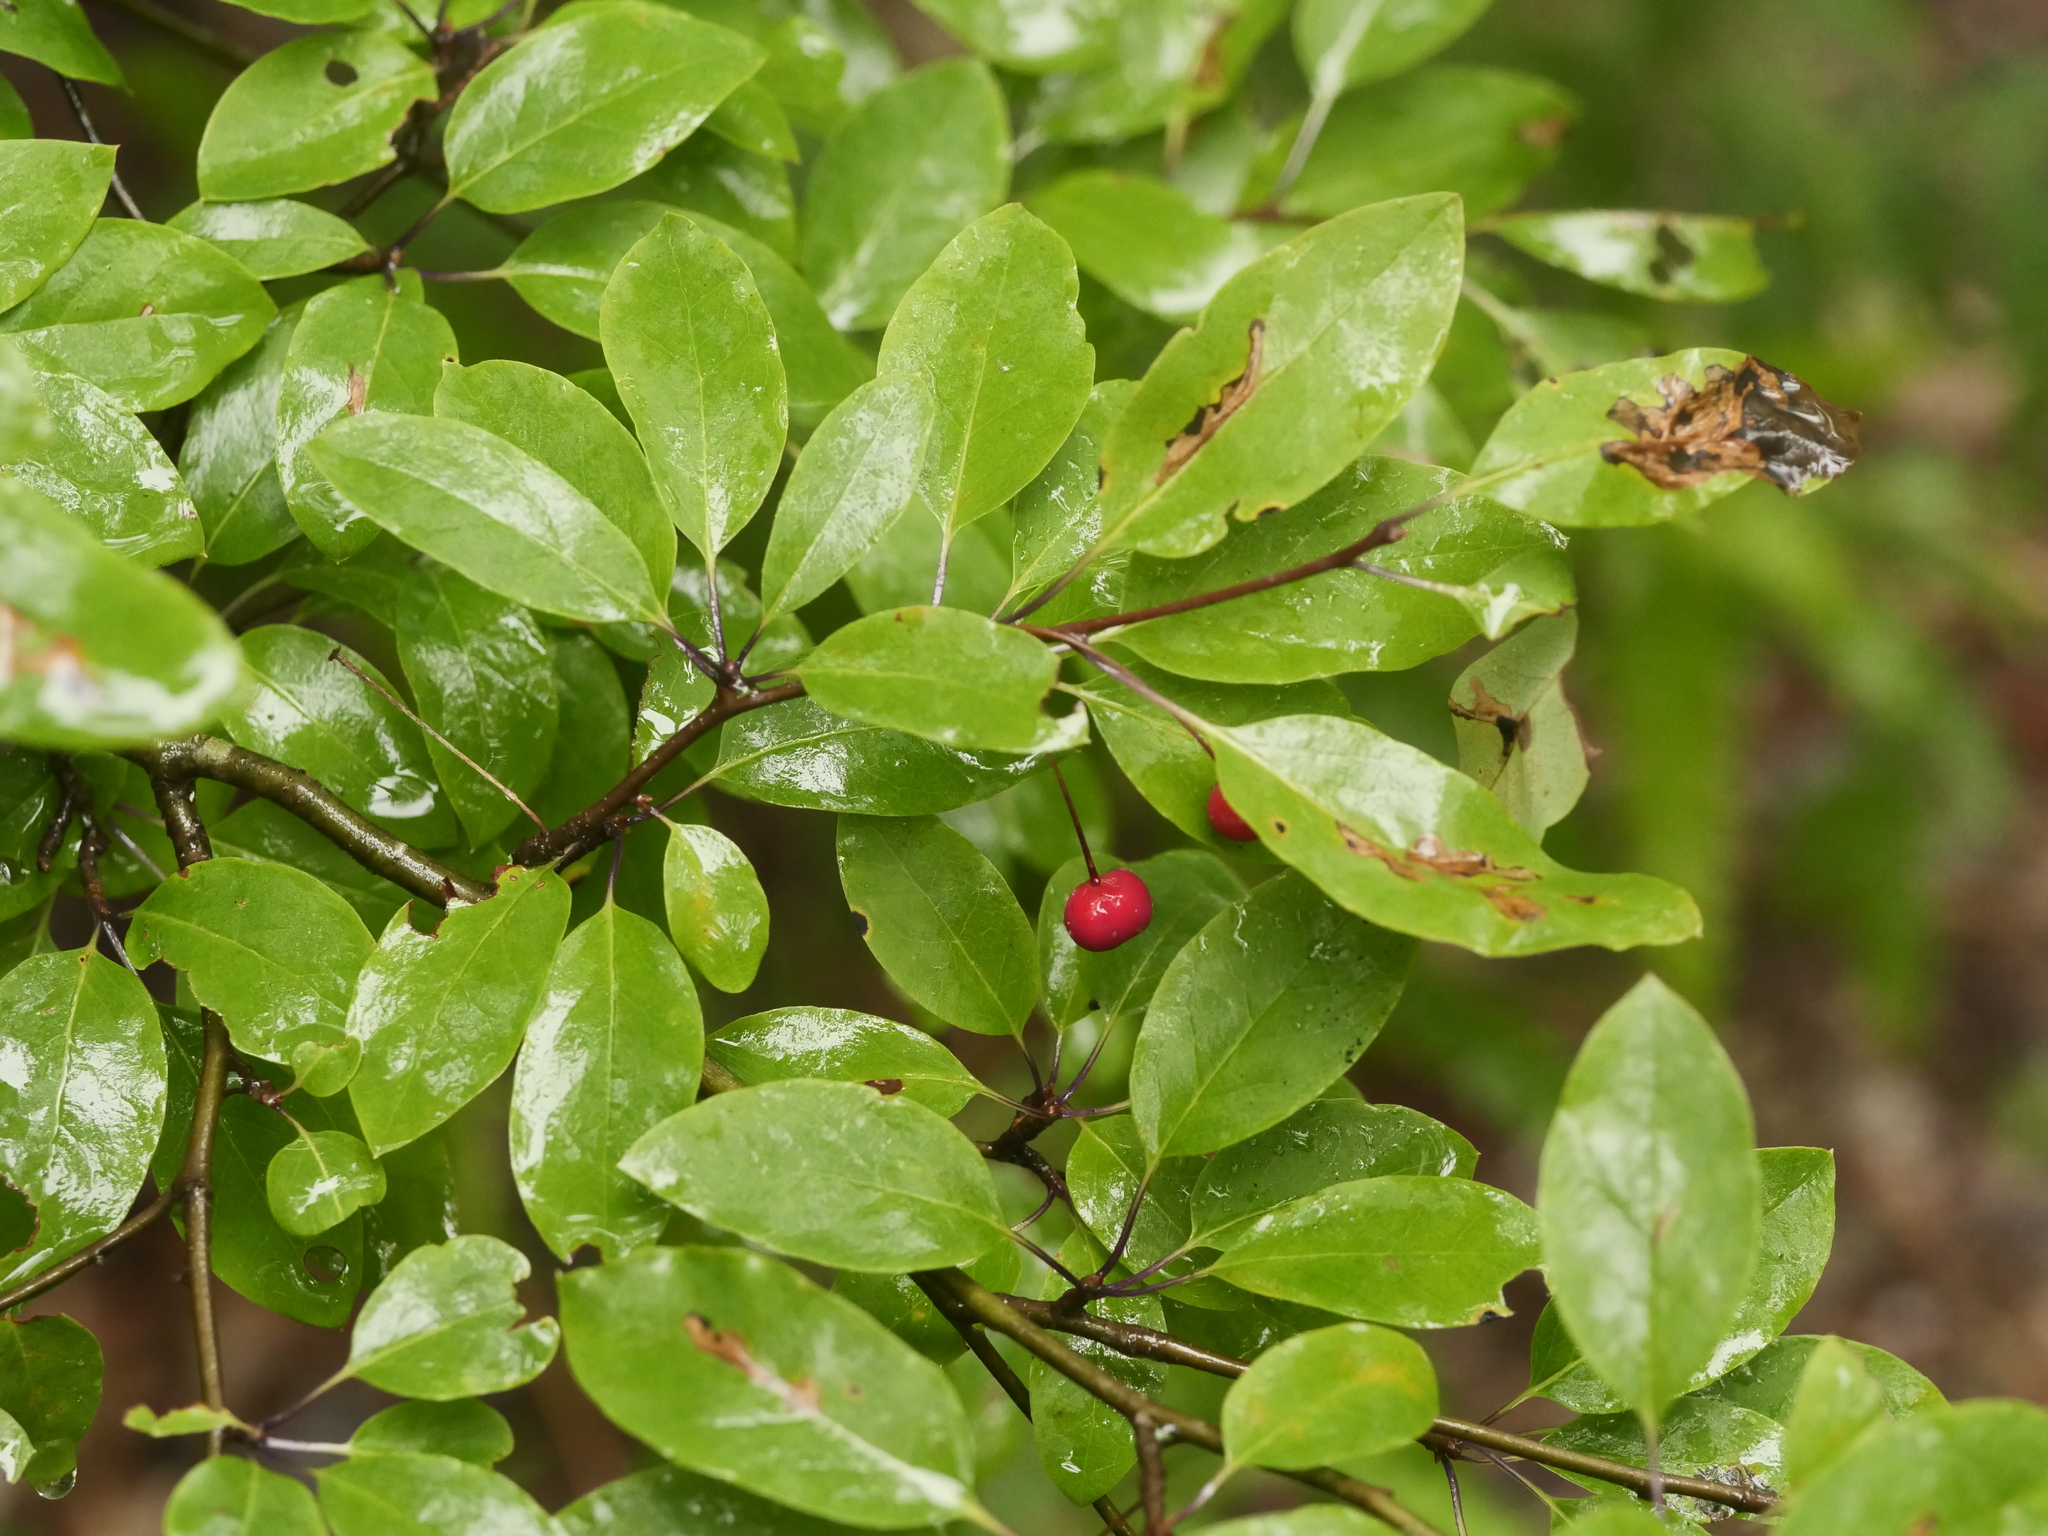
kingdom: Plantae
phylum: Tracheophyta
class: Magnoliopsida
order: Aquifoliales
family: Aquifoliaceae
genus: Ilex
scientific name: Ilex mucronata
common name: Catberry
